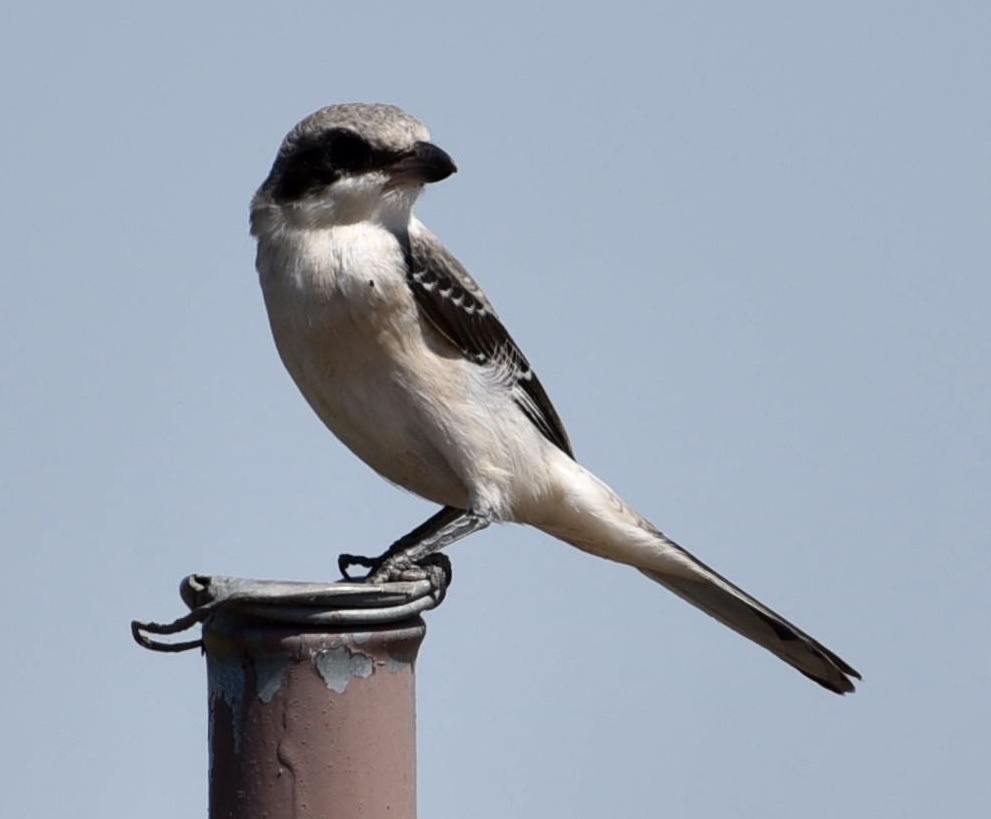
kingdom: Animalia
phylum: Chordata
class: Aves
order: Passeriformes
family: Laniidae
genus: Lanius
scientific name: Lanius minor
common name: Lesser grey shrike
